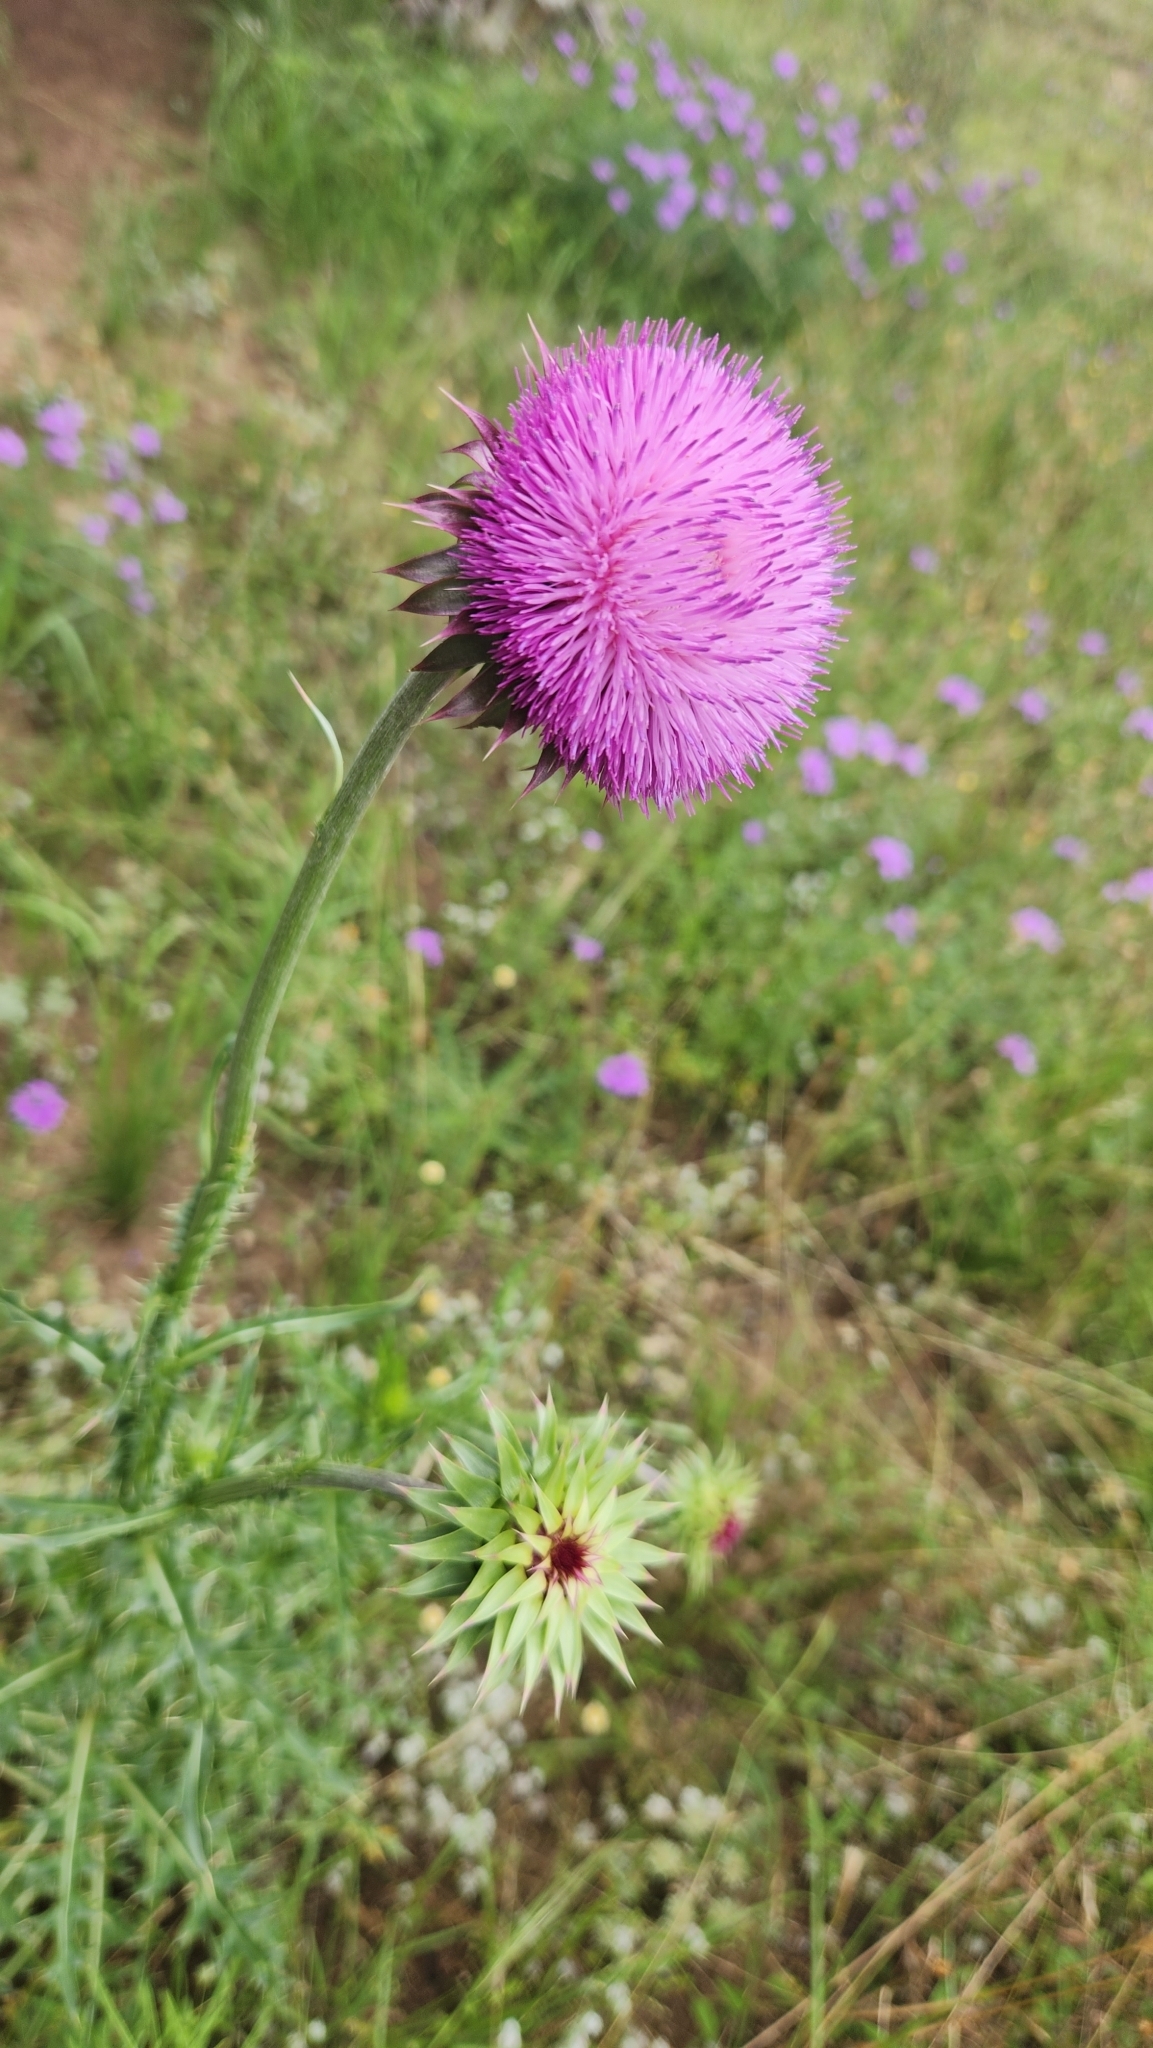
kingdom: Plantae
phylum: Tracheophyta
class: Magnoliopsida
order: Asterales
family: Asteraceae
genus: Carduus
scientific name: Carduus nutans
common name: Musk thistle
